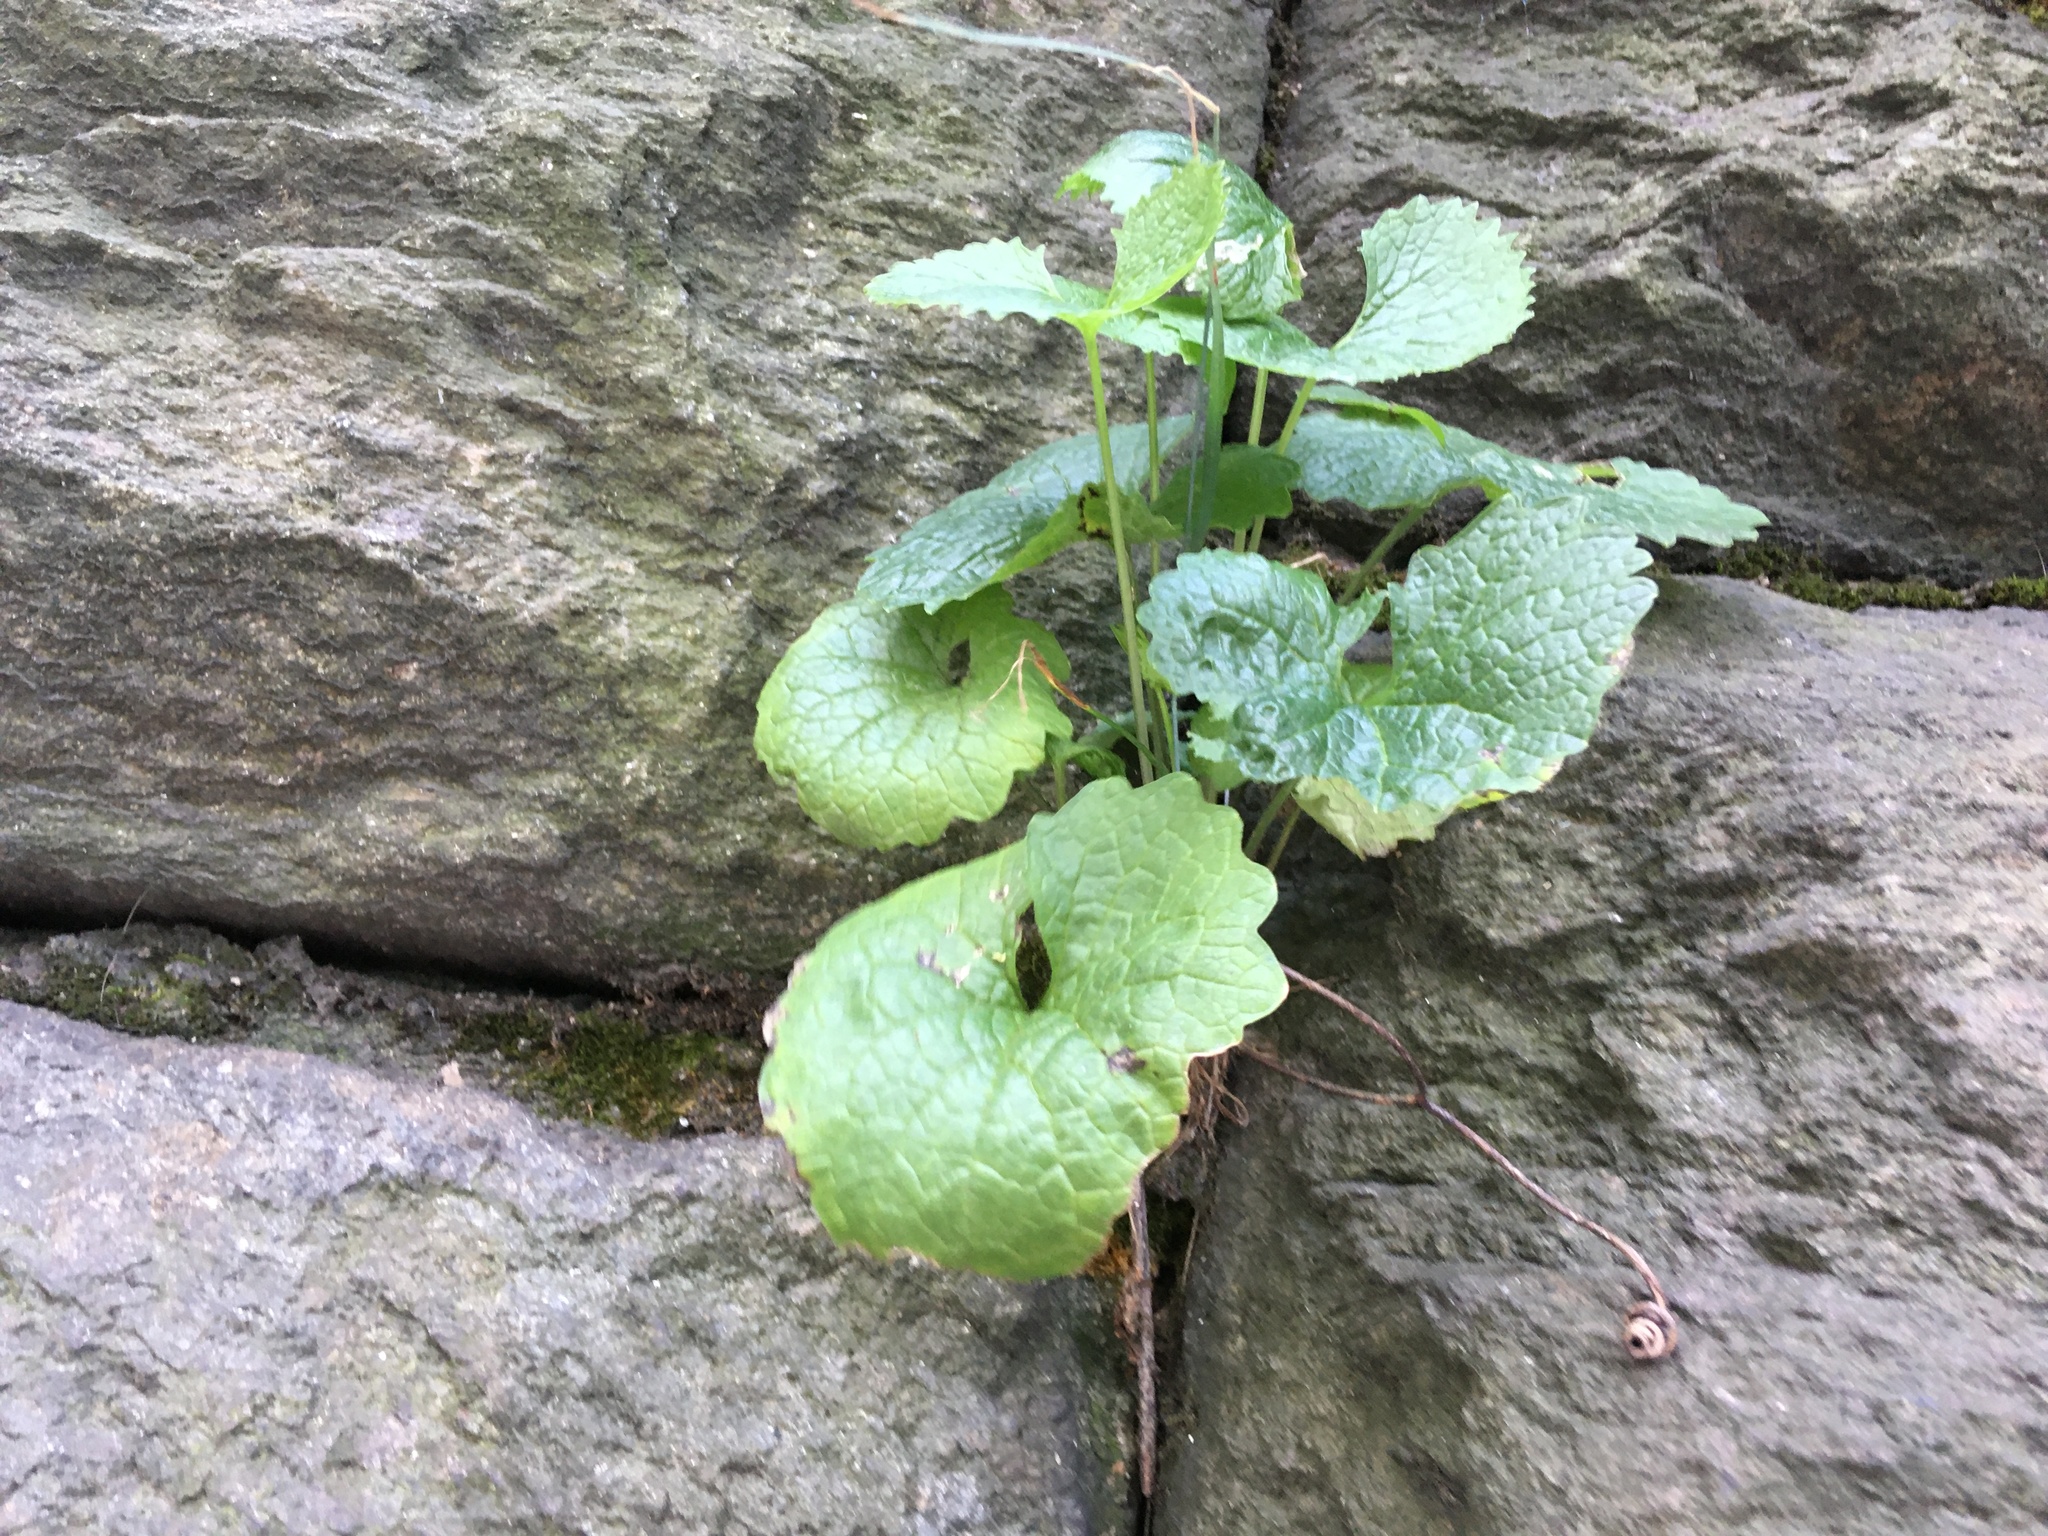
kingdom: Plantae
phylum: Tracheophyta
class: Magnoliopsida
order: Brassicales
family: Brassicaceae
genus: Alliaria
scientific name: Alliaria petiolata
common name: Garlic mustard
